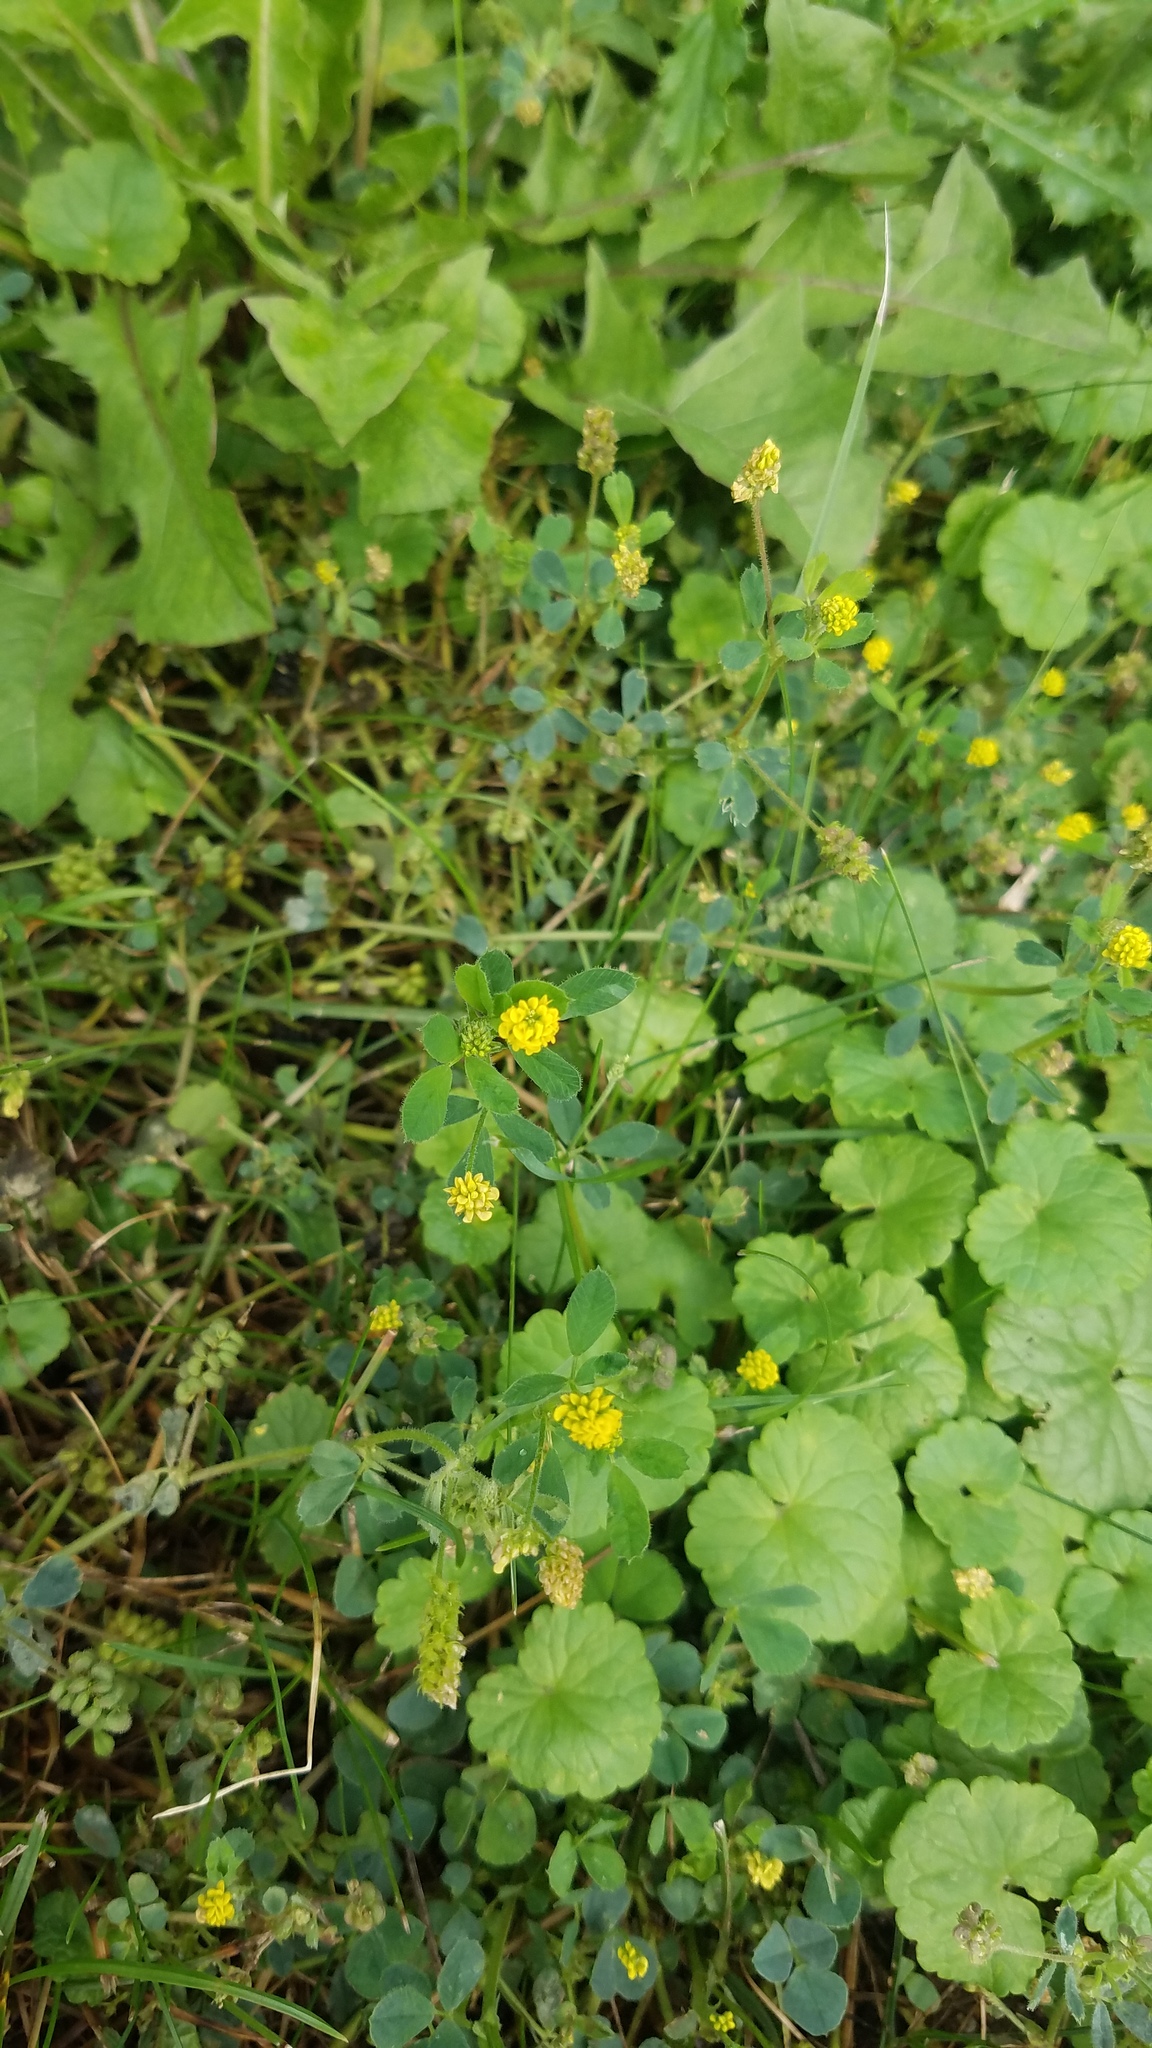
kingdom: Plantae
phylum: Tracheophyta
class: Magnoliopsida
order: Fabales
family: Fabaceae
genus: Medicago
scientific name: Medicago lupulina
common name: Black medick
